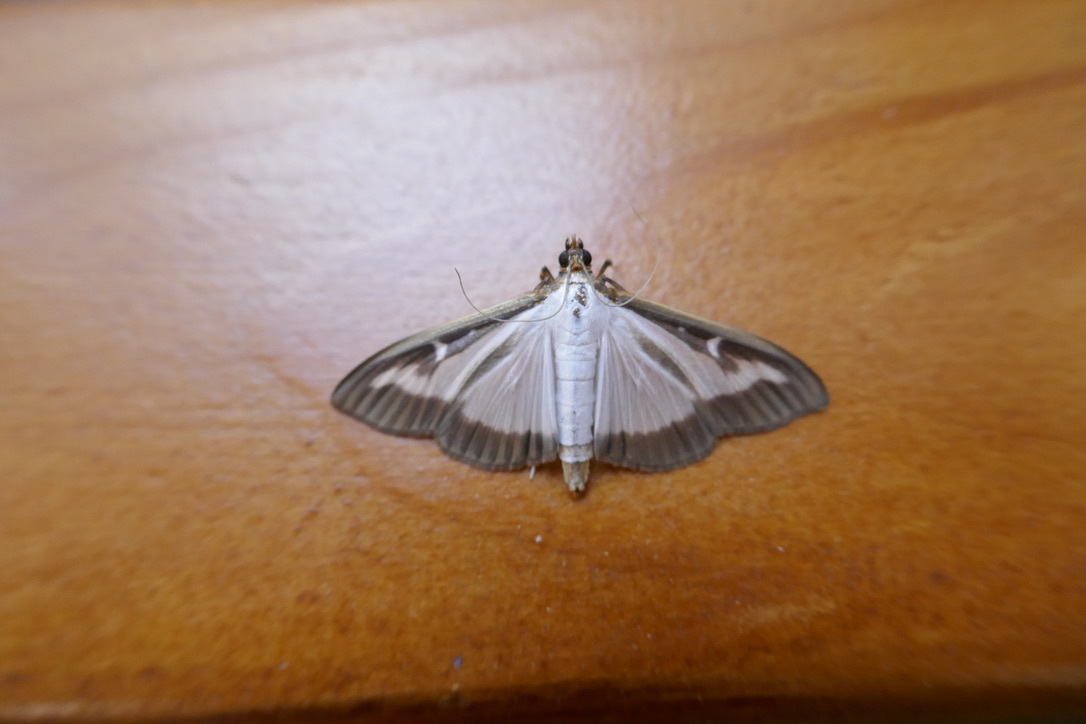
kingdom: Animalia
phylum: Arthropoda
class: Insecta
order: Lepidoptera
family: Crambidae
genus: Cydalima
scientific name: Cydalima perspectalis
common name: Box tree moth
